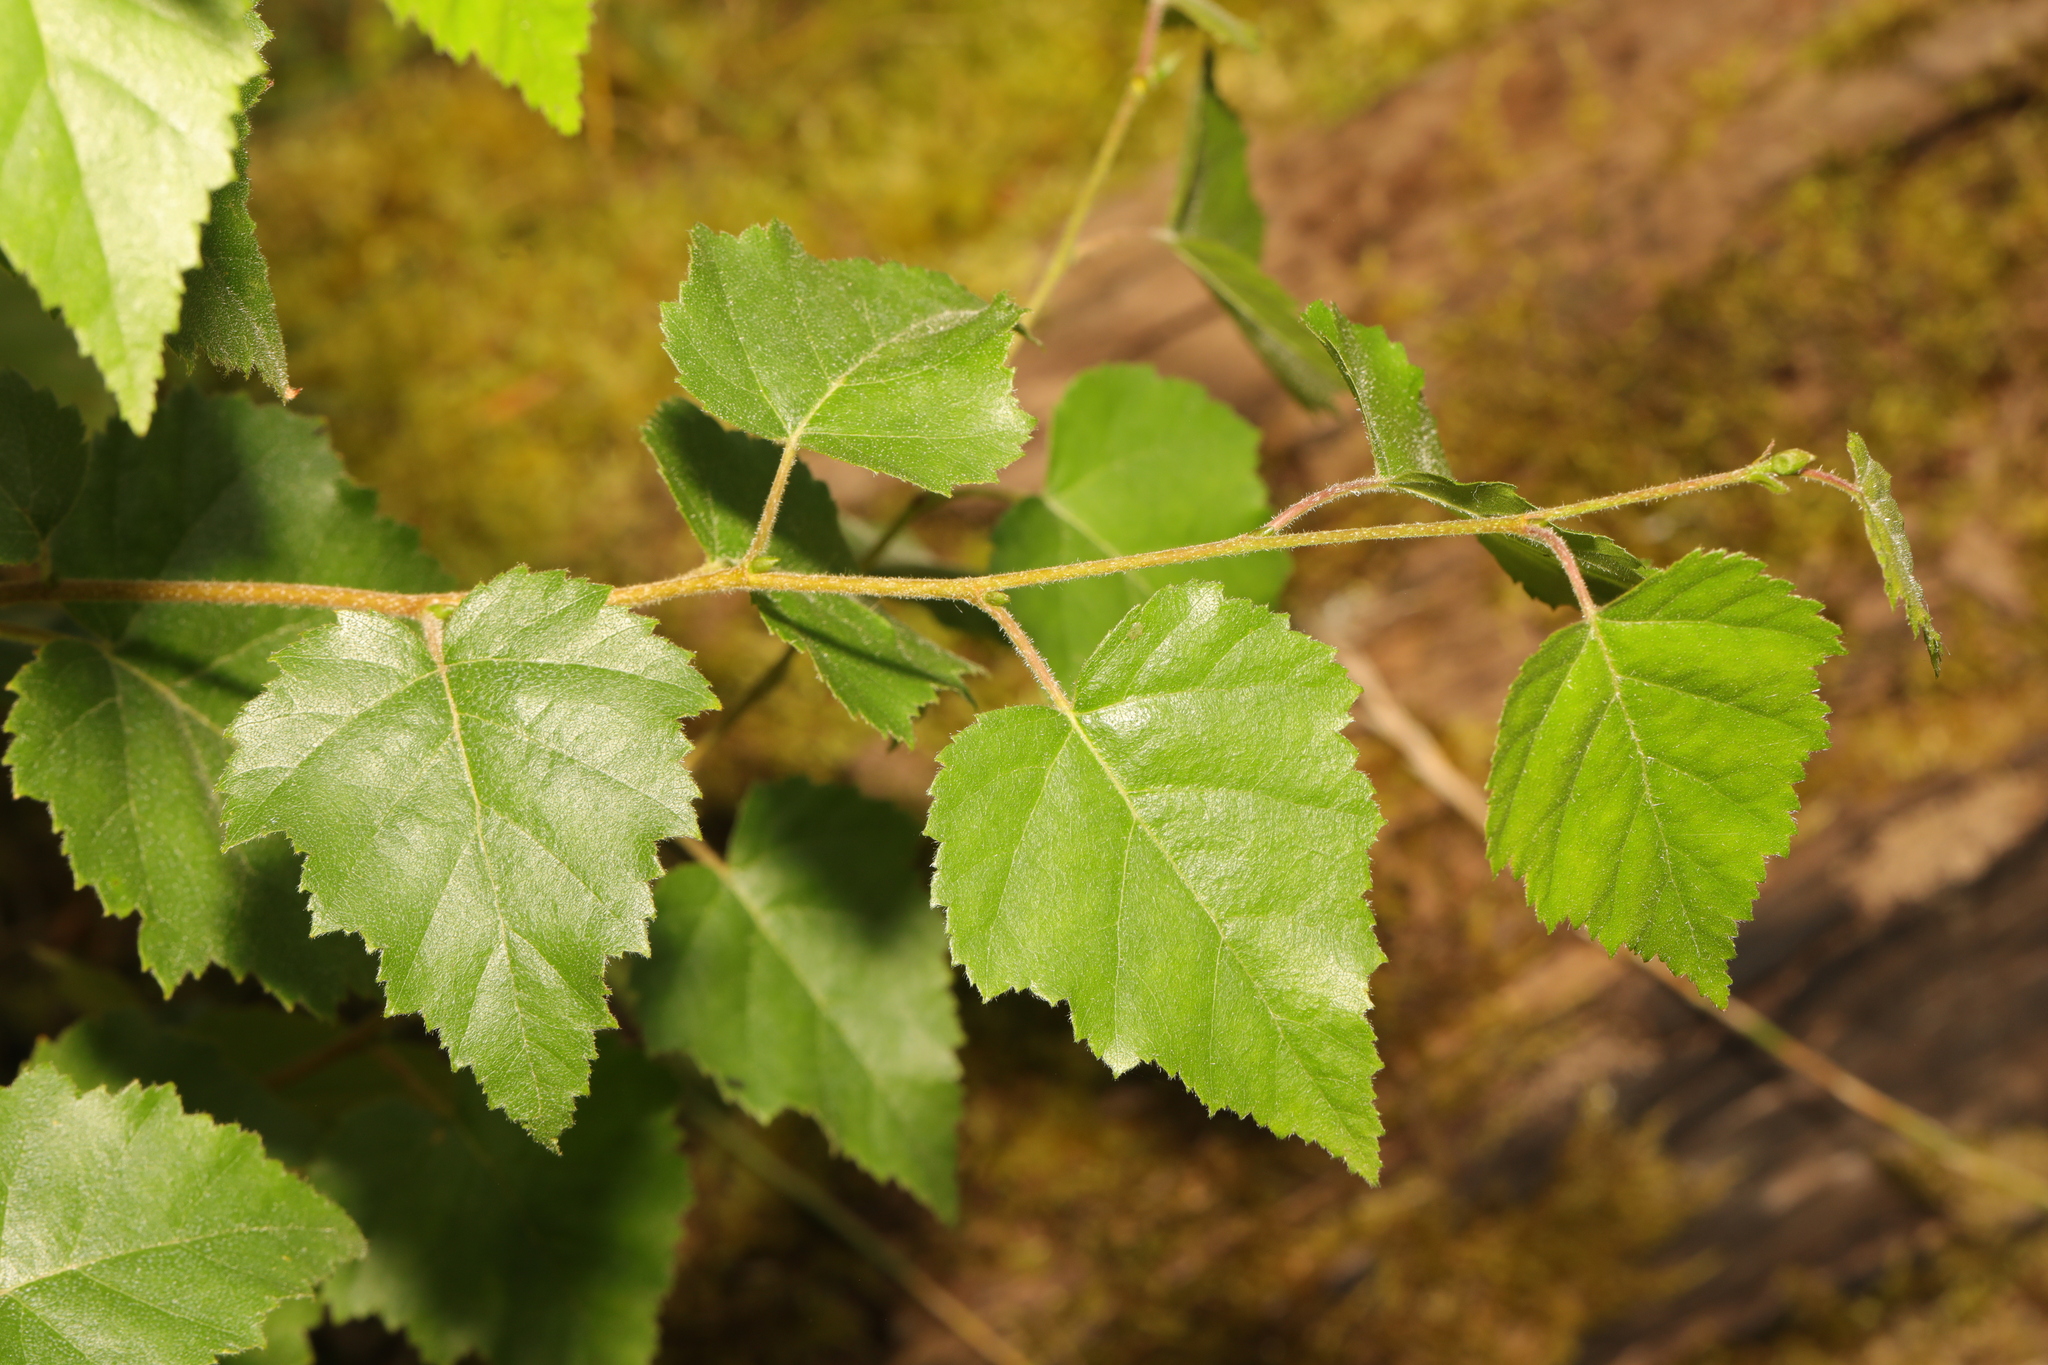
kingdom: Plantae
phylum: Tracheophyta
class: Magnoliopsida
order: Fagales
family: Betulaceae
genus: Betula
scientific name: Betula pubescens
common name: Downy birch
